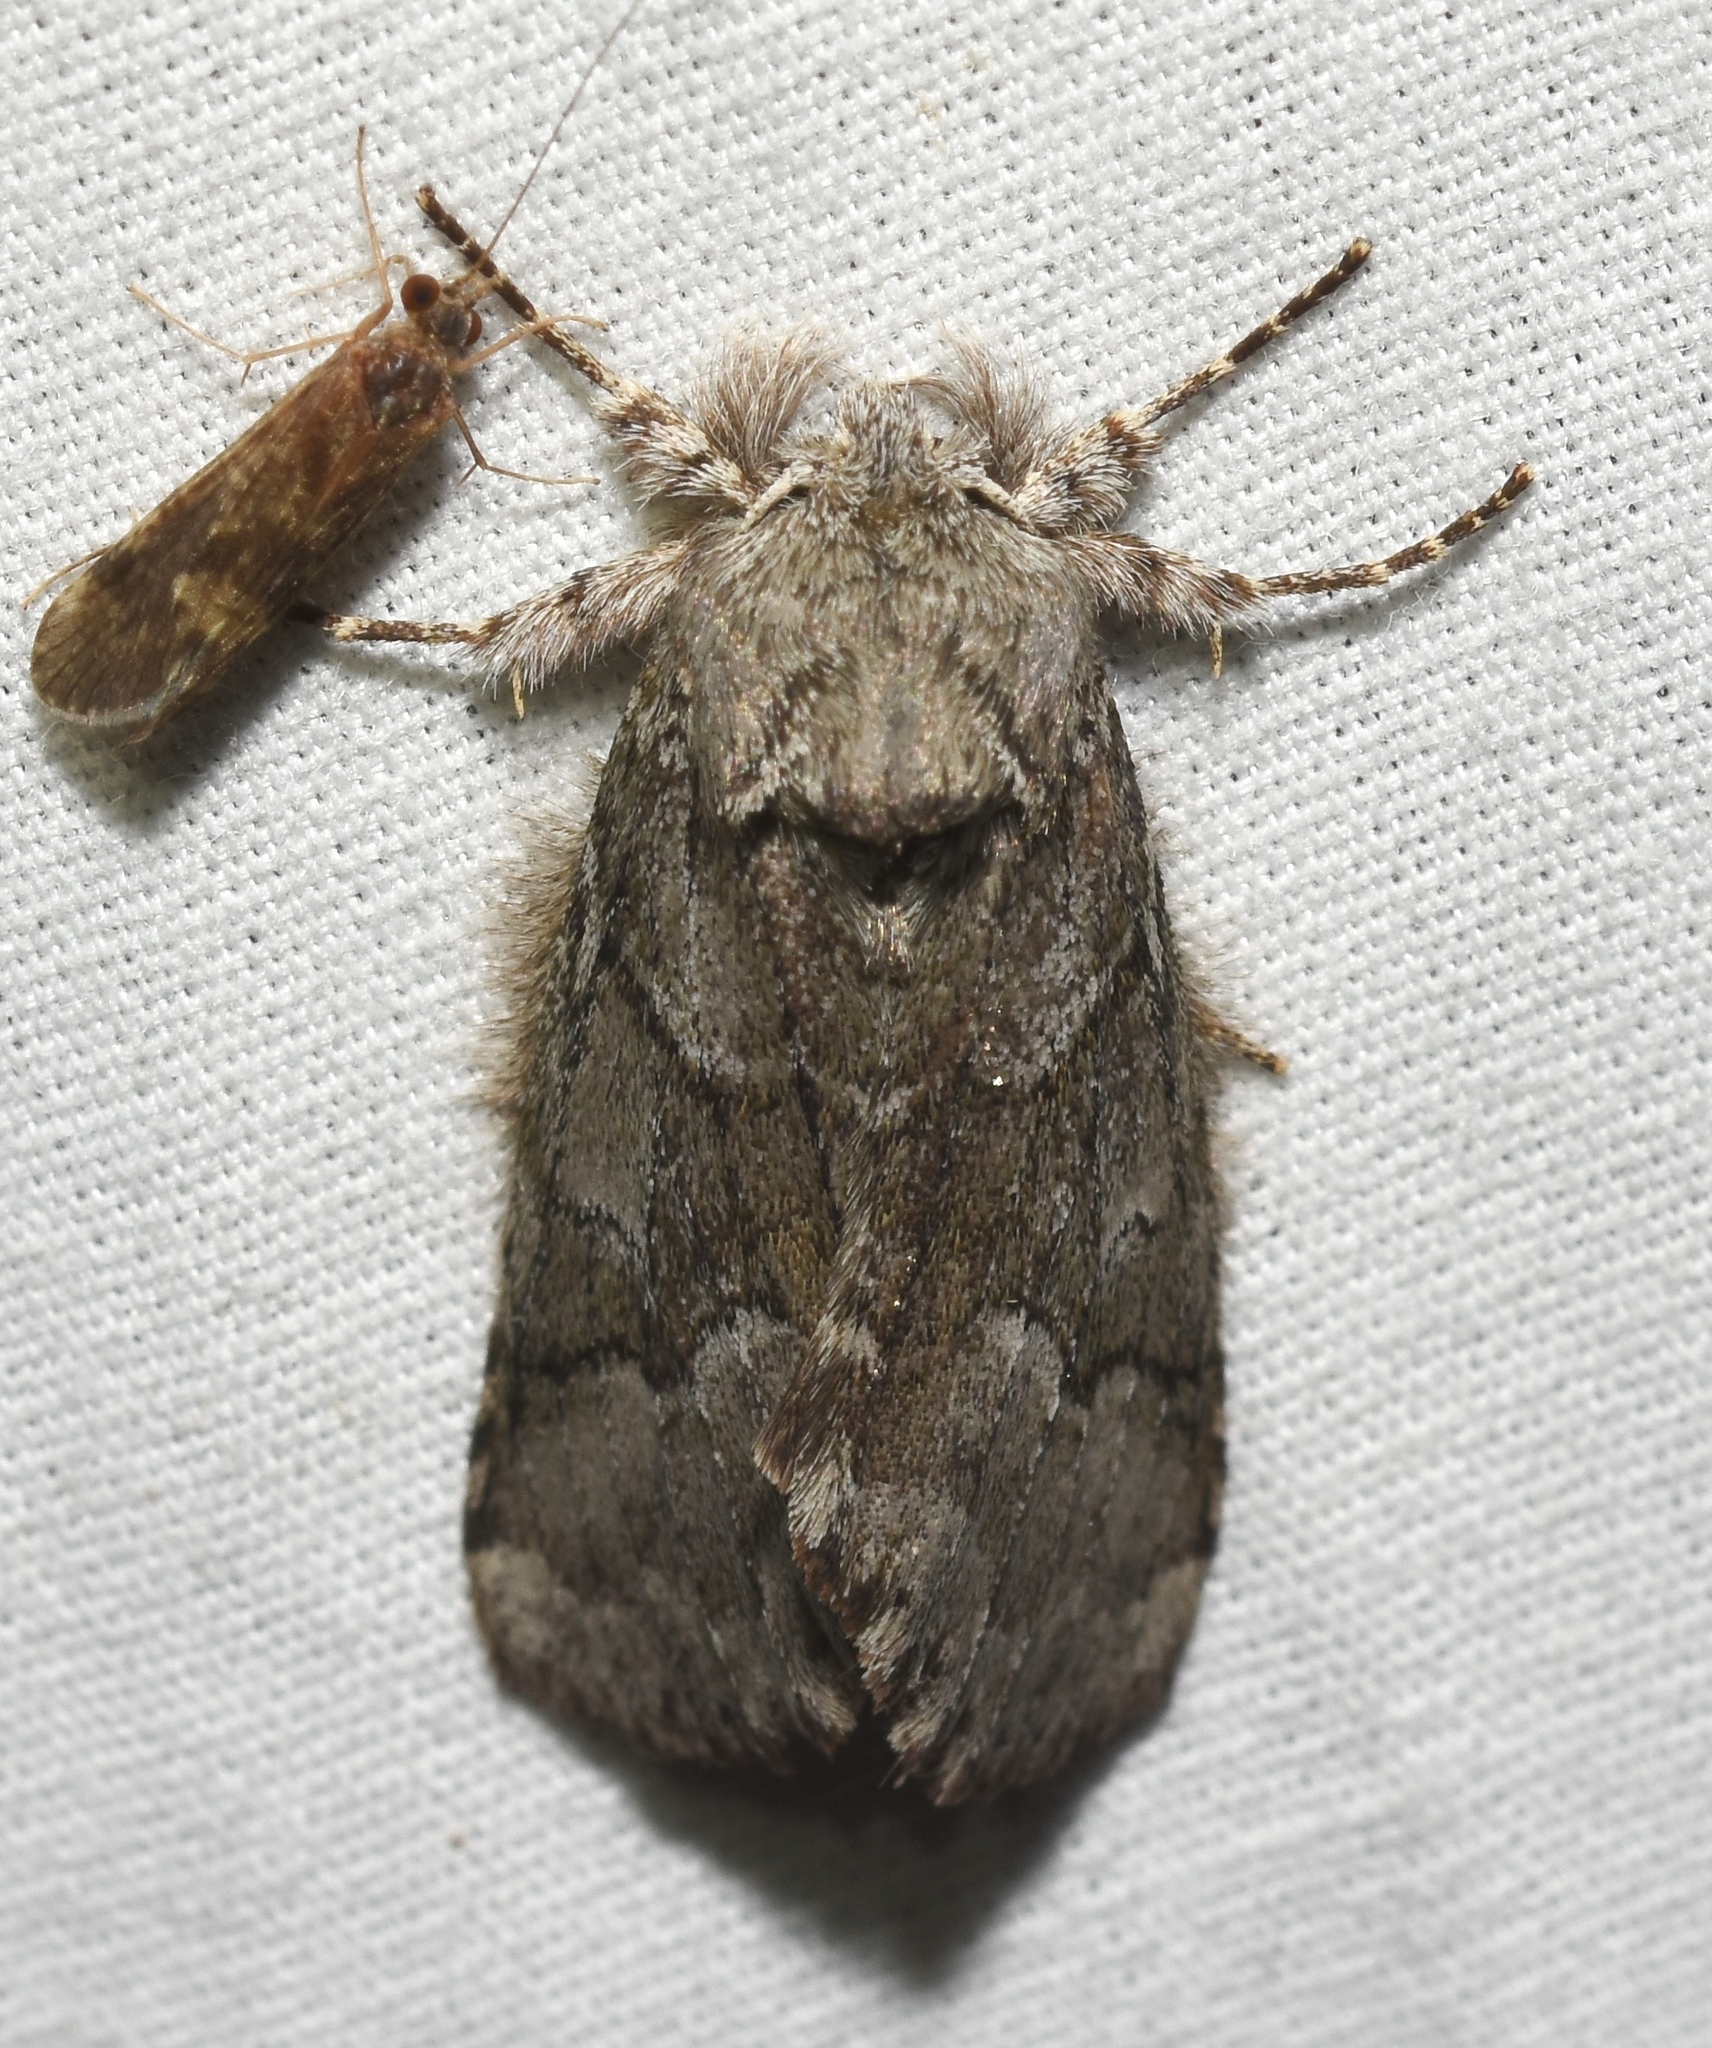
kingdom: Animalia
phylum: Arthropoda
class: Insecta
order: Lepidoptera
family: Notodontidae
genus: Lochmaeus
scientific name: Lochmaeus bilineata
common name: Double-lined prominent
